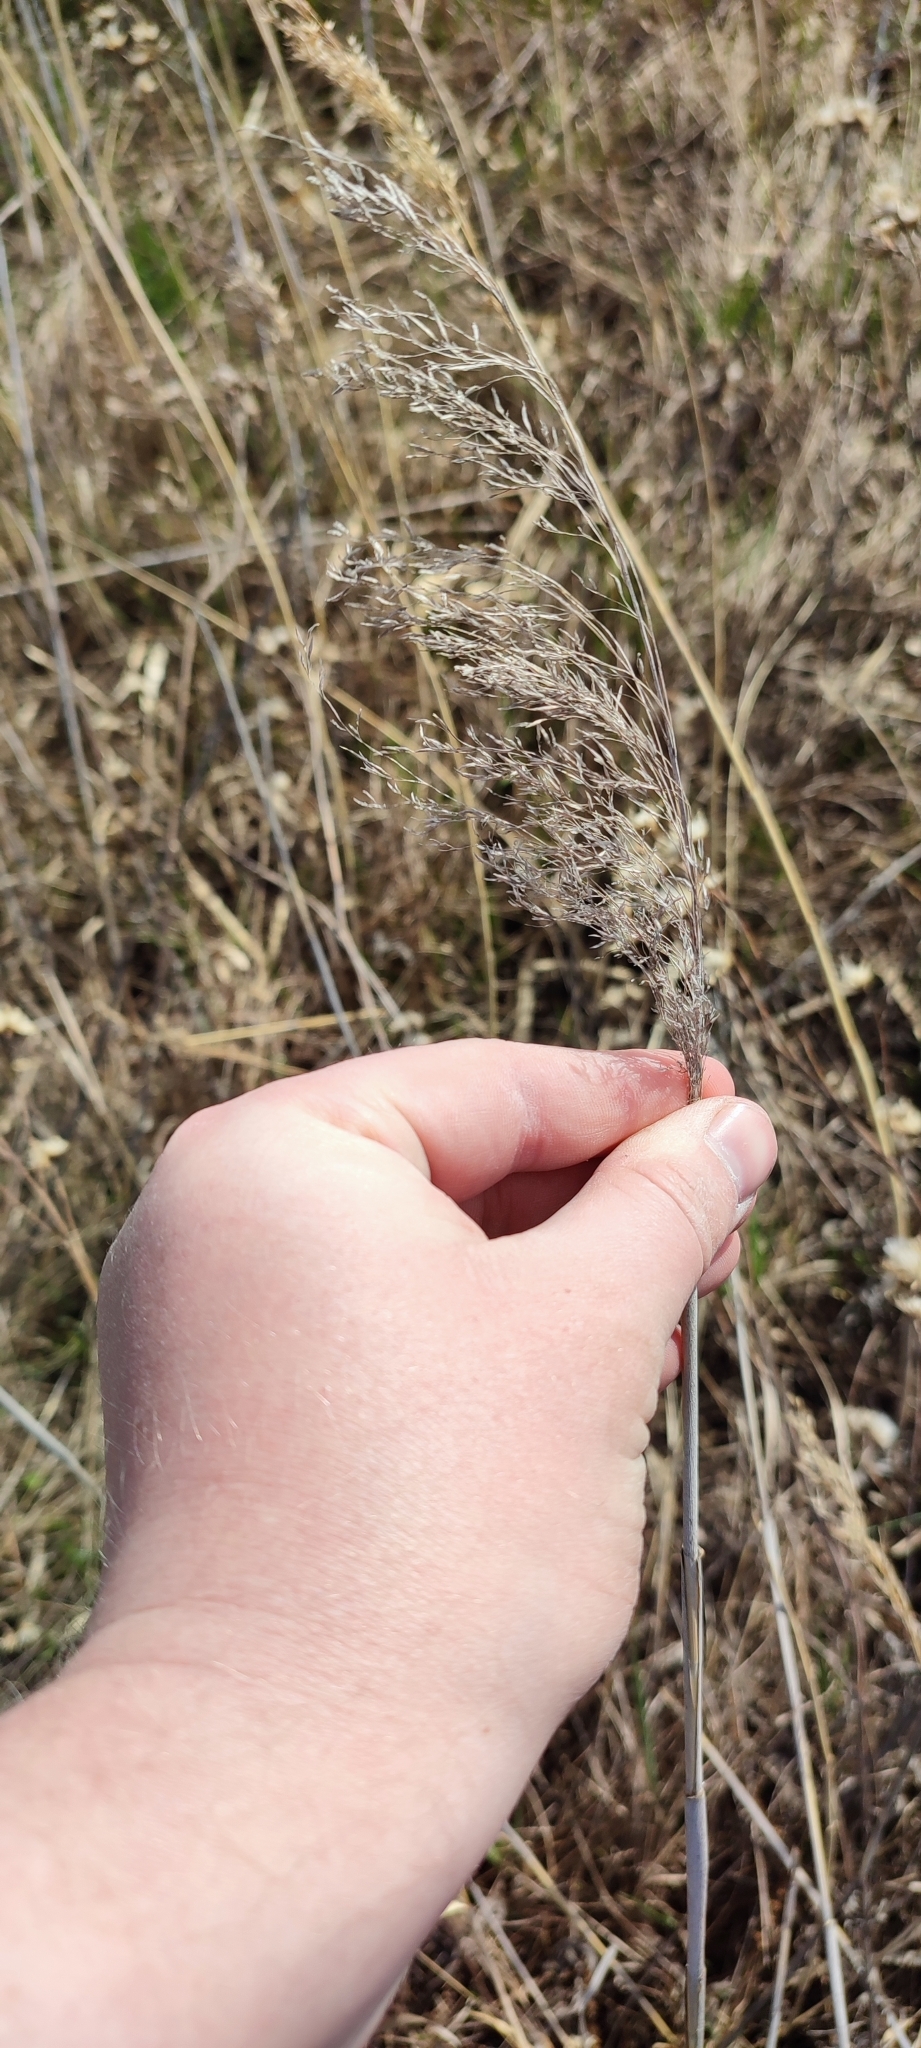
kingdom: Plantae
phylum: Tracheophyta
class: Liliopsida
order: Poales
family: Poaceae
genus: Phragmites
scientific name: Phragmites australis
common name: Common reed
